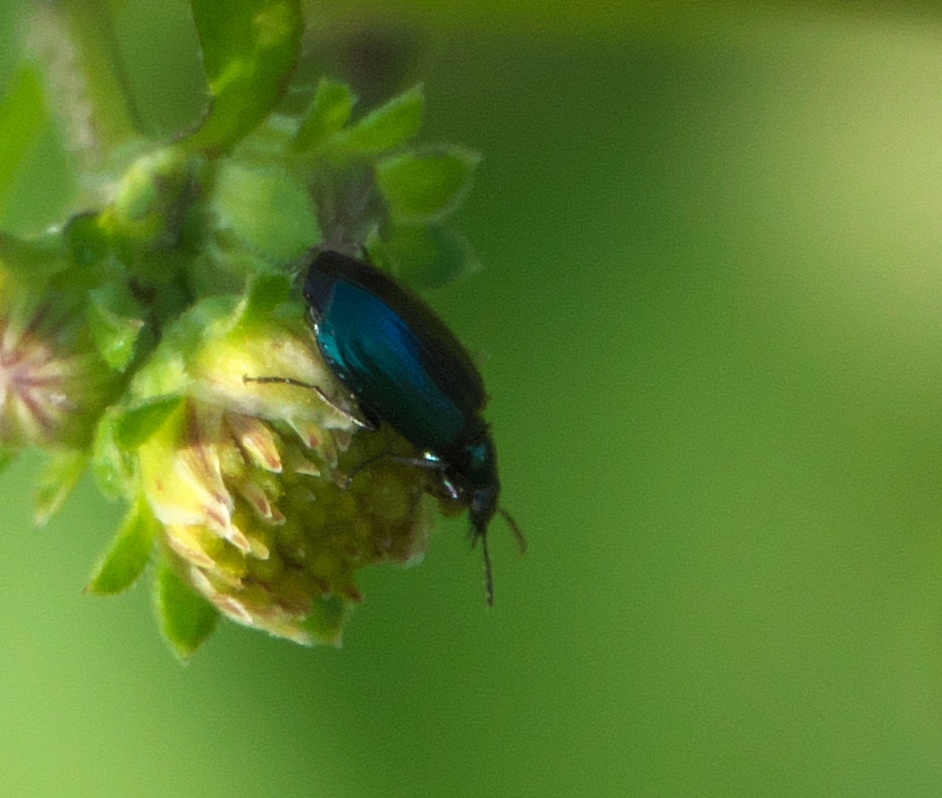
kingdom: Animalia
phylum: Arthropoda
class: Insecta
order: Coleoptera
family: Carabidae
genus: Lebia
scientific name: Lebia viridis
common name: Flower lebia beetle
